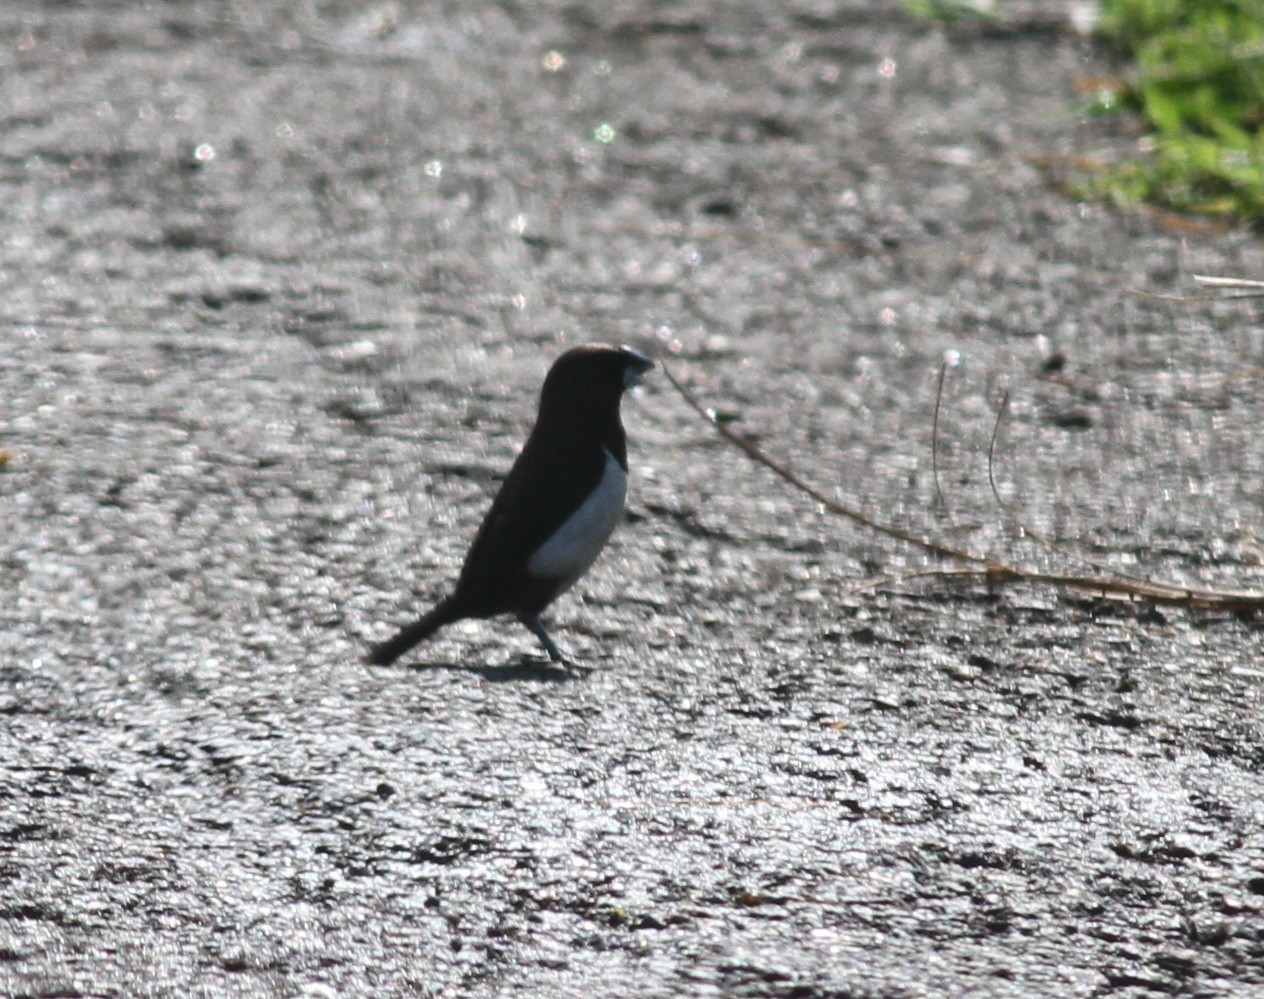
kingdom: Animalia
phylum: Chordata
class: Aves
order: Passeriformes
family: Estrildidae
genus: Lonchura
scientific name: Lonchura striata
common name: White-rumped munia
